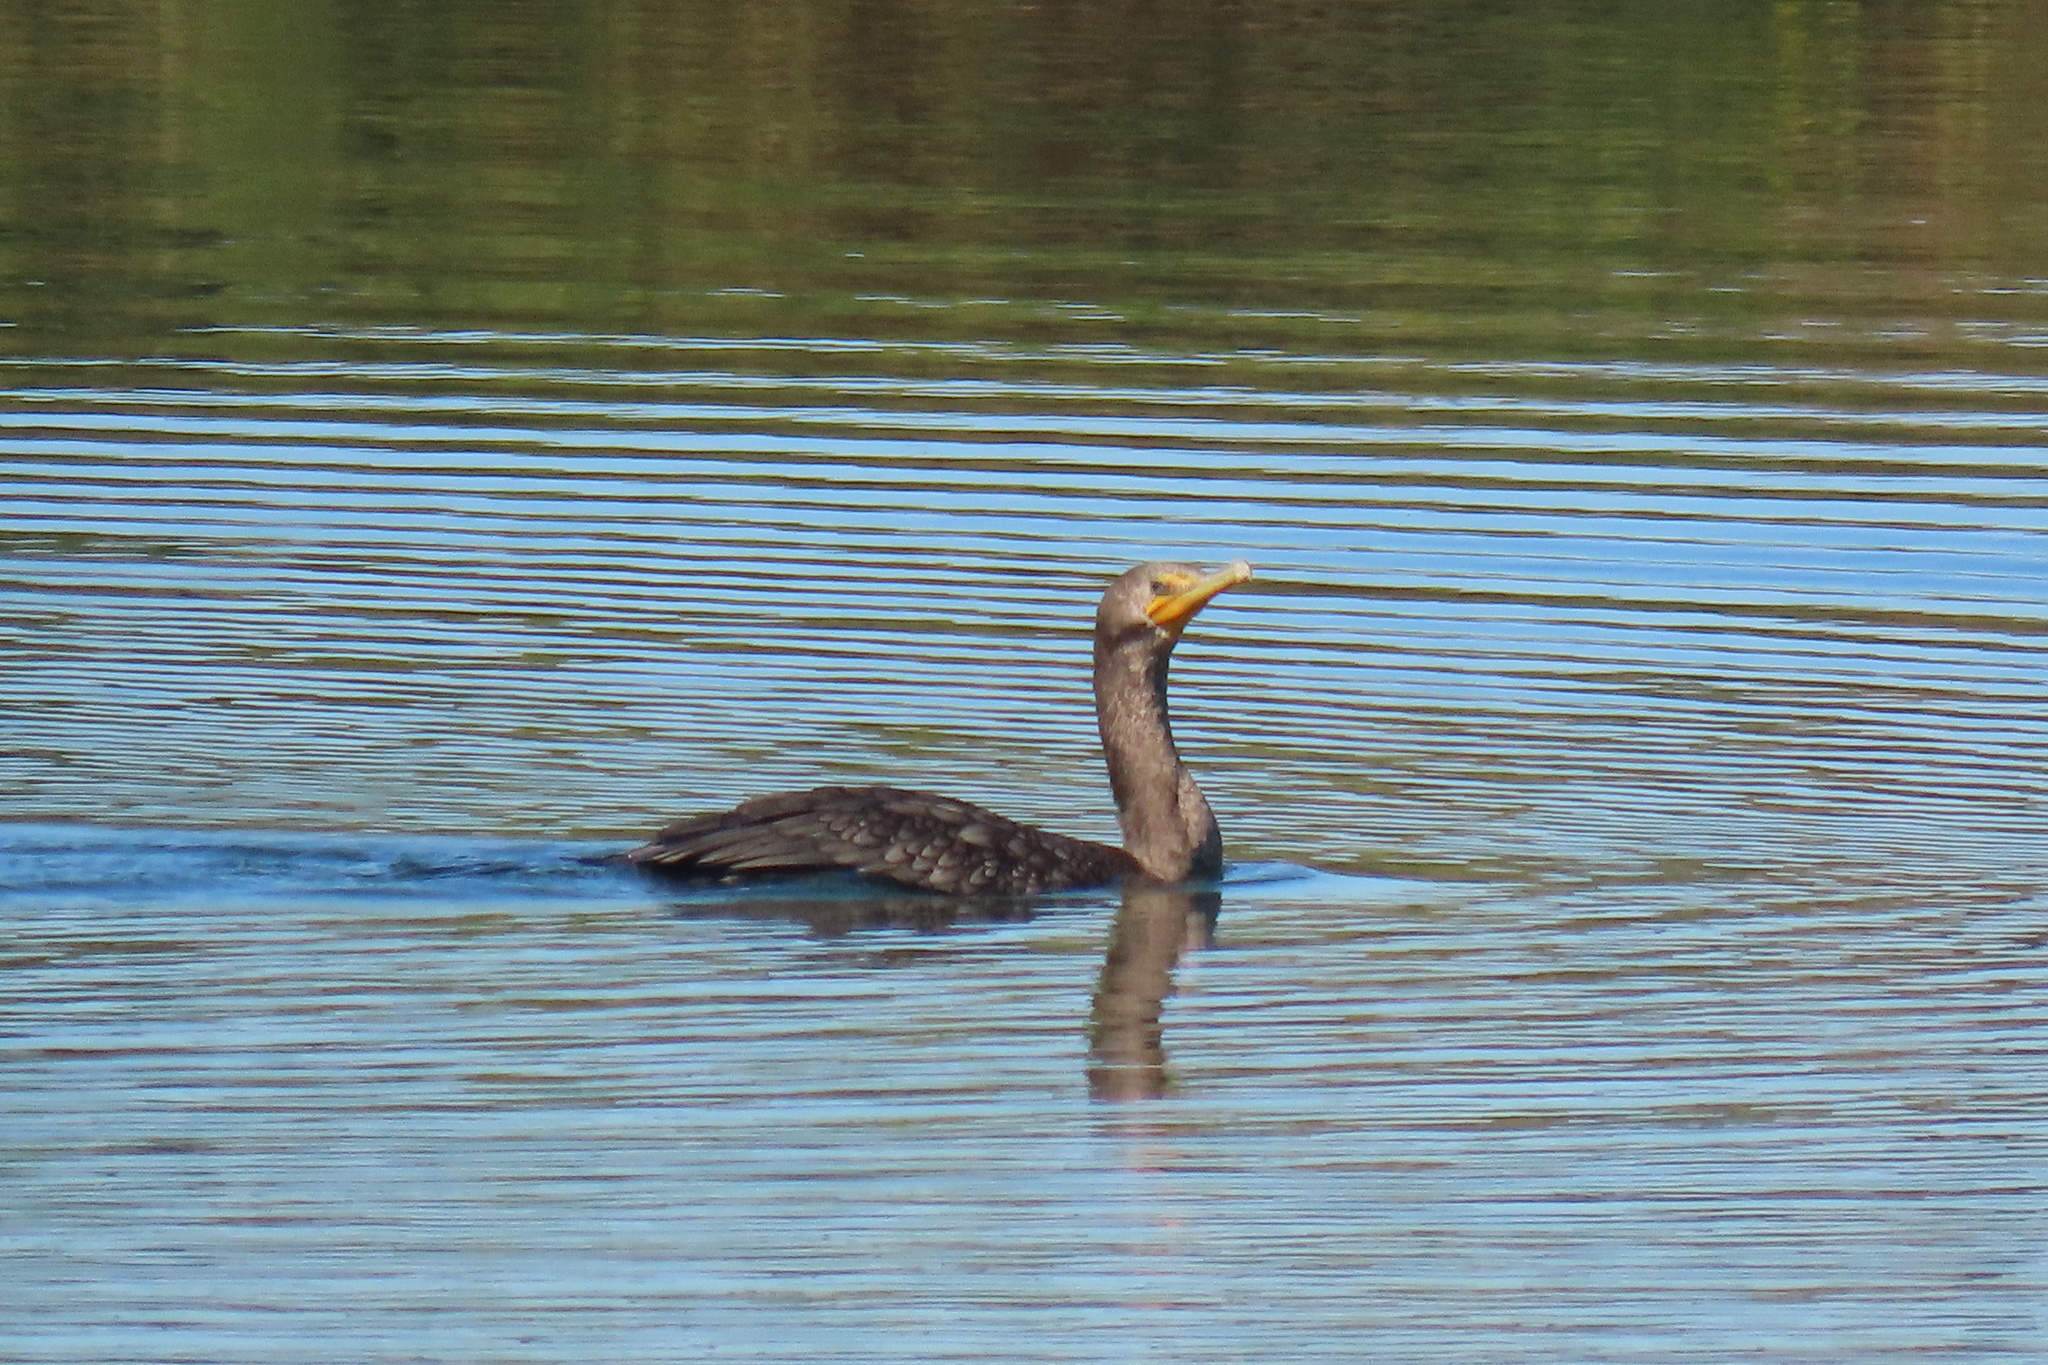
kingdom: Animalia
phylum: Chordata
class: Aves
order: Suliformes
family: Phalacrocoracidae
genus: Phalacrocorax
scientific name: Phalacrocorax auritus
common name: Double-crested cormorant
